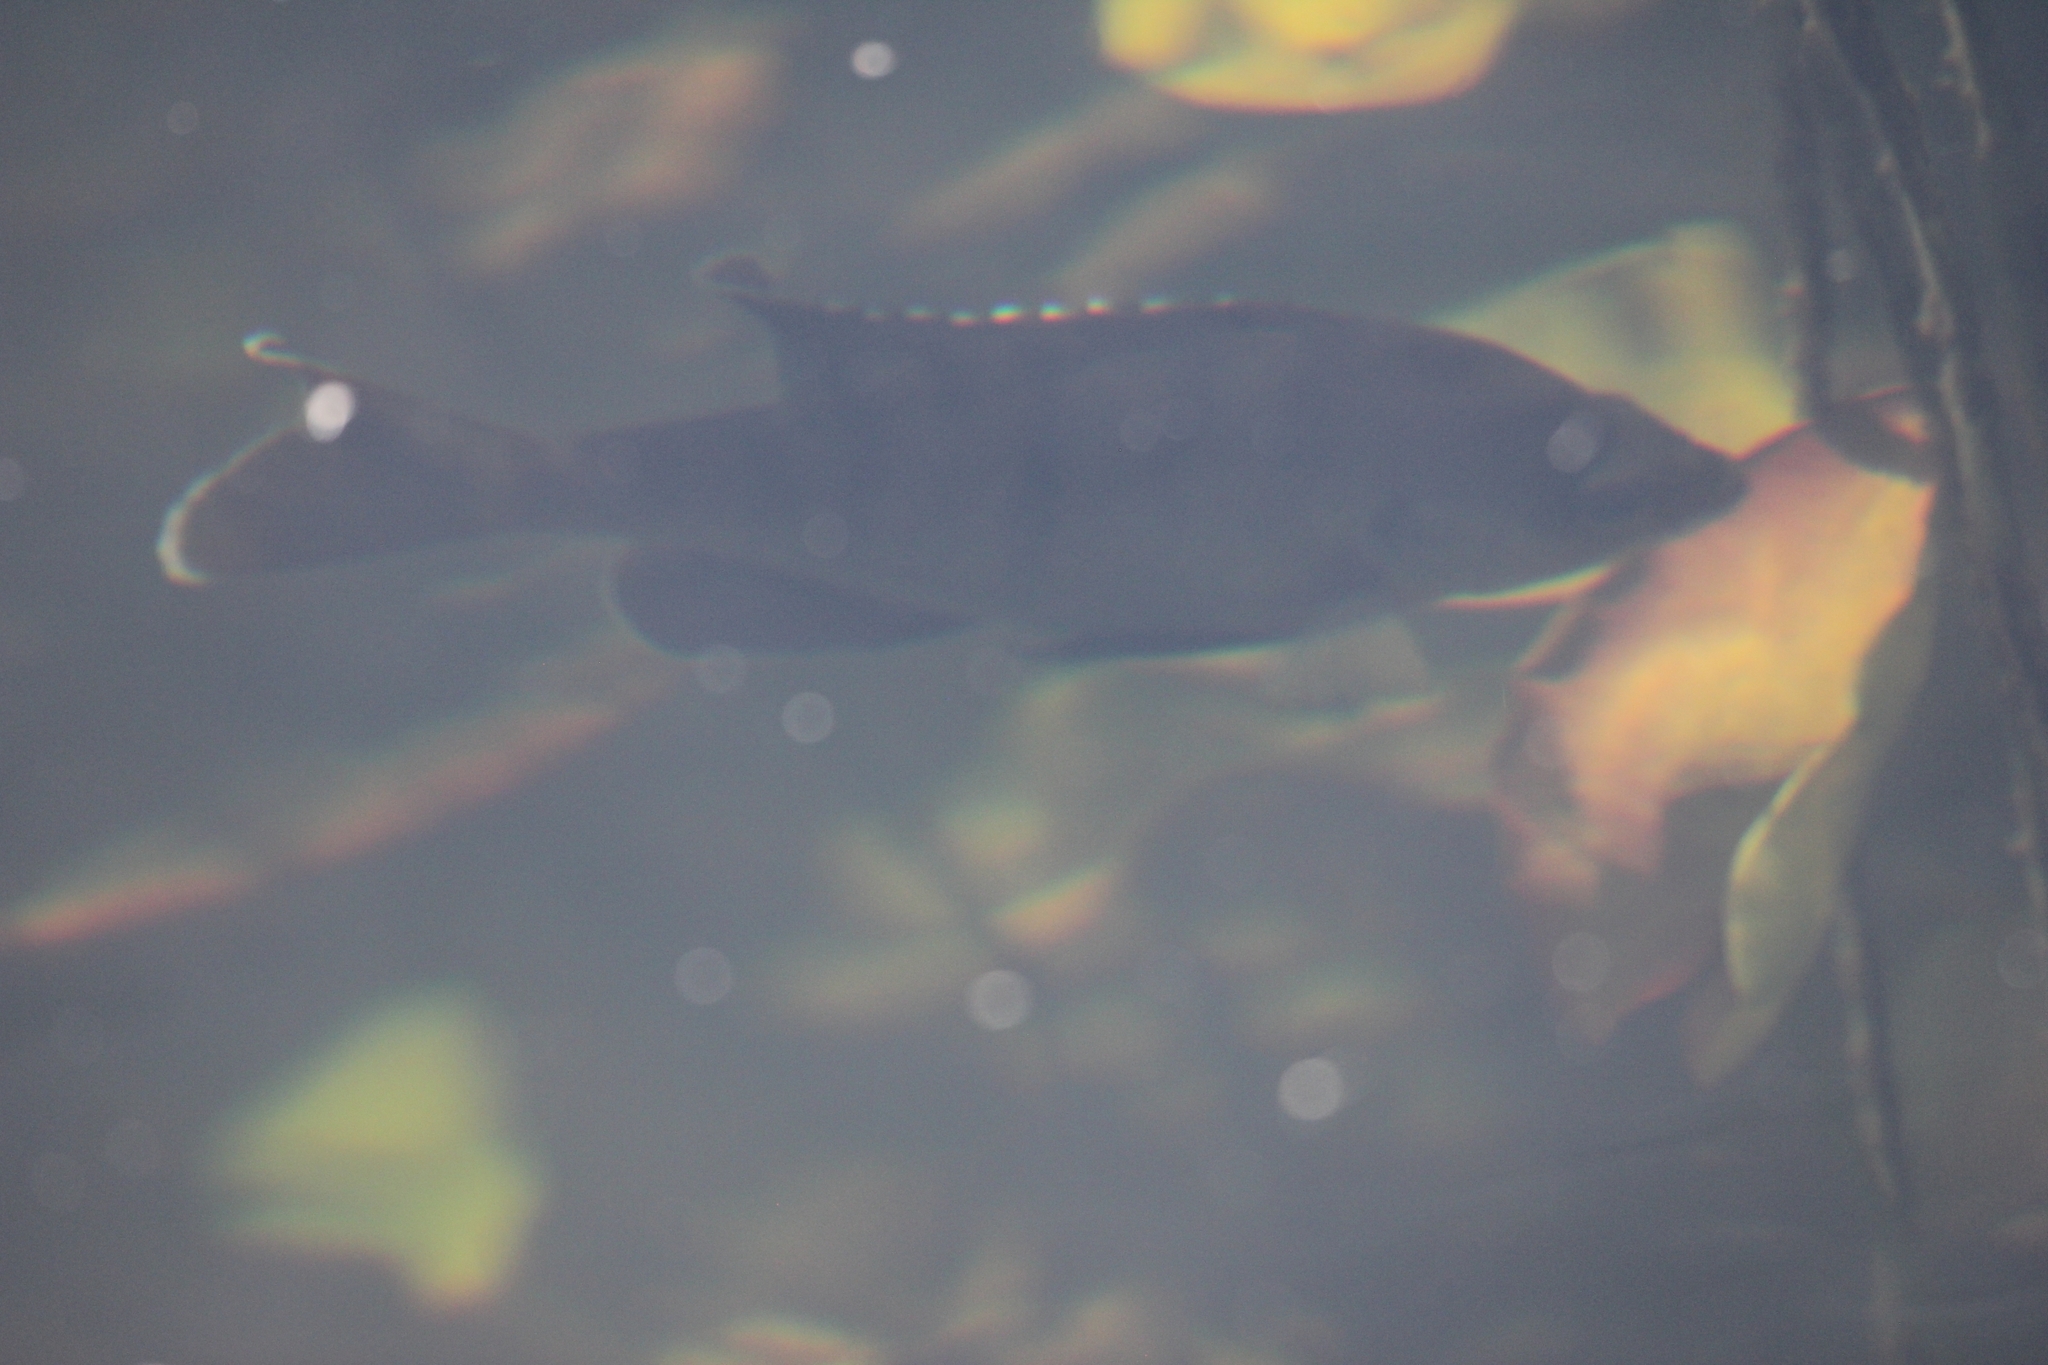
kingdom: Animalia
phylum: Chordata
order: Perciformes
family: Centrarchidae
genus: Lepomis
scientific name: Lepomis macrochirus
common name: Bluegill
